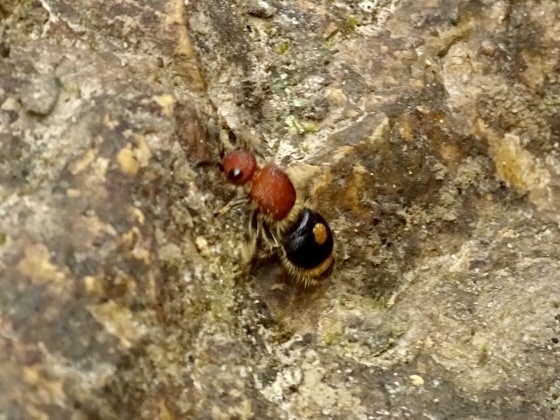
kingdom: Animalia
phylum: Arthropoda
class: Insecta
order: Hymenoptera
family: Mutillidae
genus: Odontomutilla
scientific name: Odontomutilla uranioides
